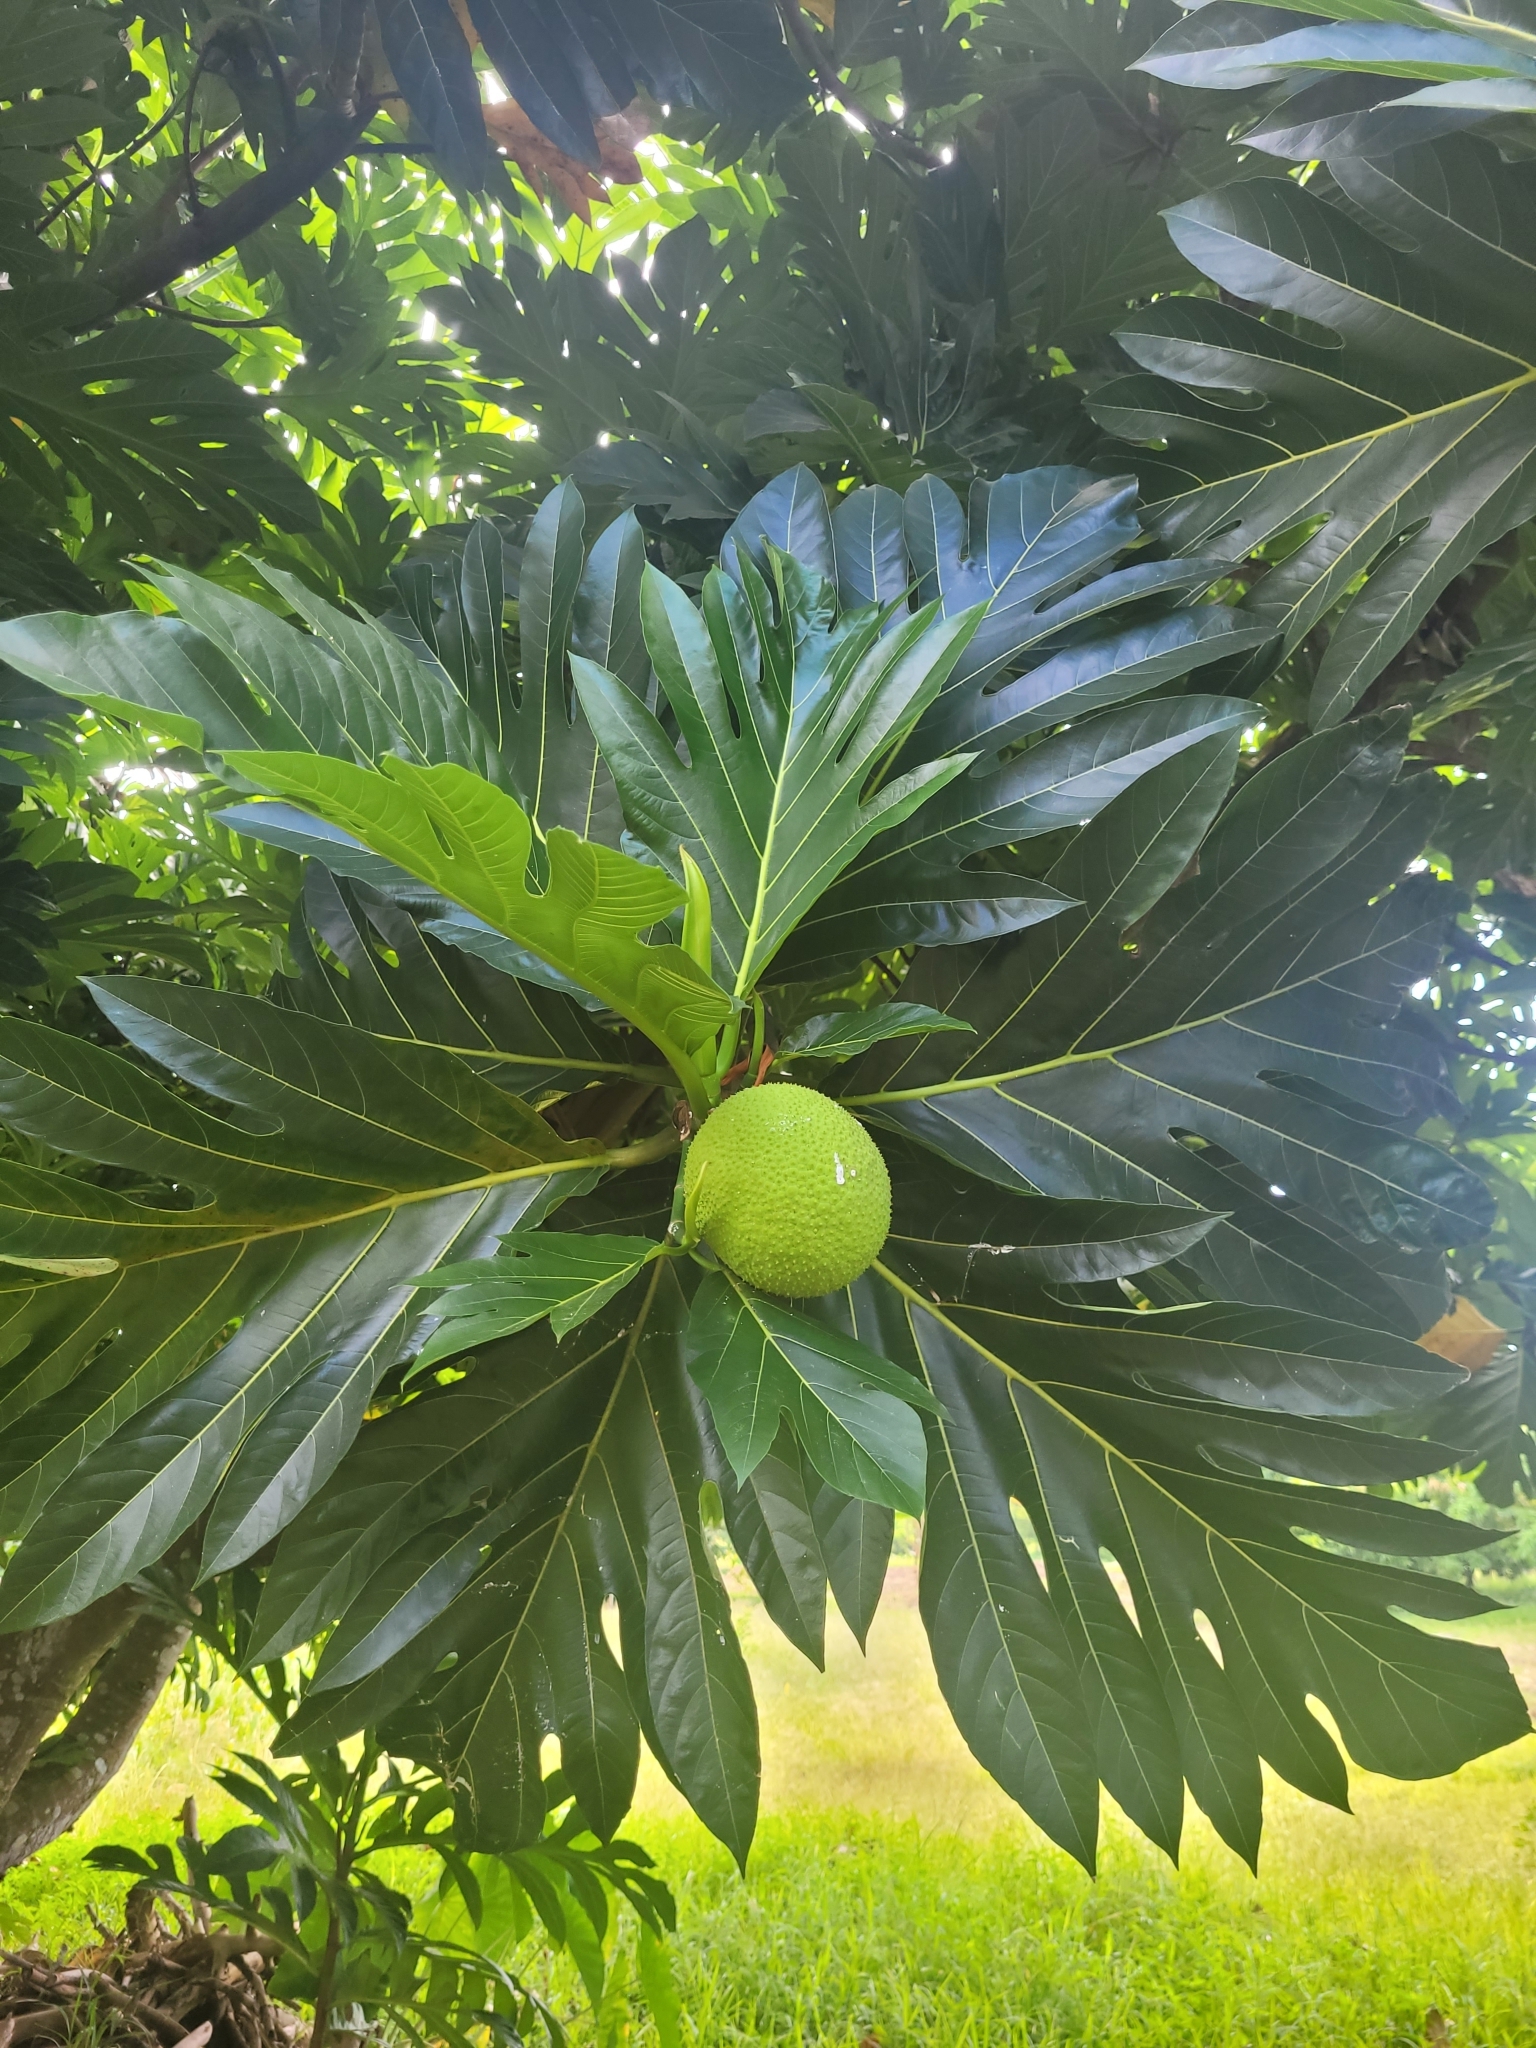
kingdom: Plantae
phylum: Tracheophyta
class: Magnoliopsida
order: Rosales
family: Moraceae
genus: Artocarpus
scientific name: Artocarpus altilis
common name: Breadfruit
